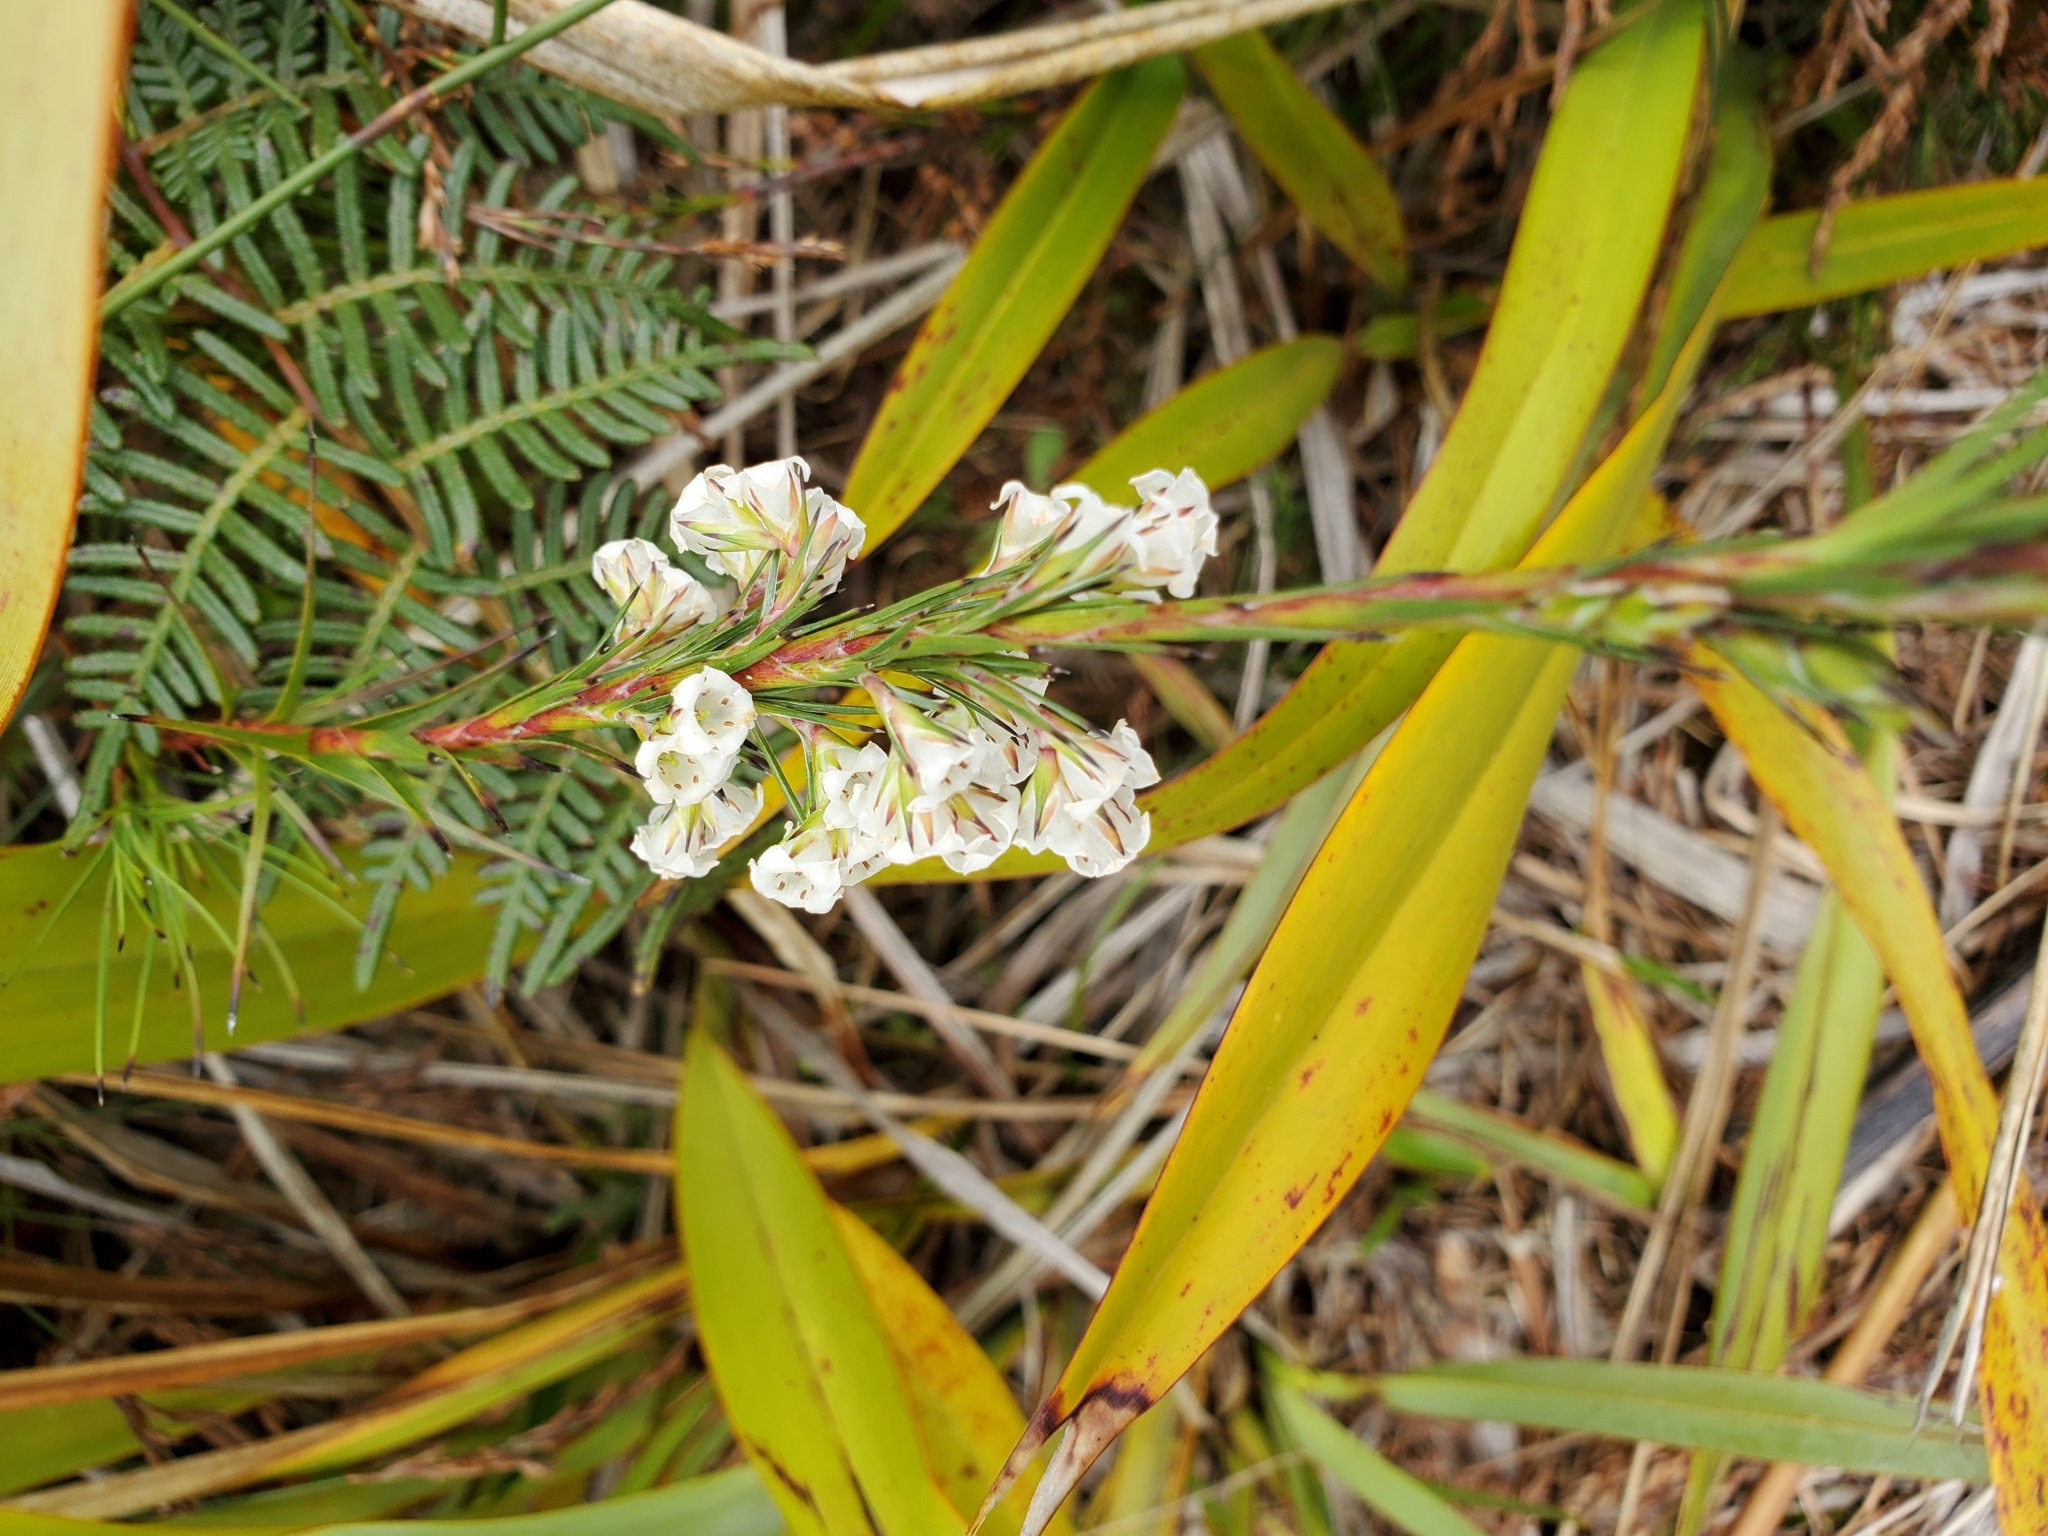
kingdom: Plantae
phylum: Tracheophyta
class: Magnoliopsida
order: Ericales
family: Ericaceae
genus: Dracophyllum
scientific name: Dracophyllum arboreum
